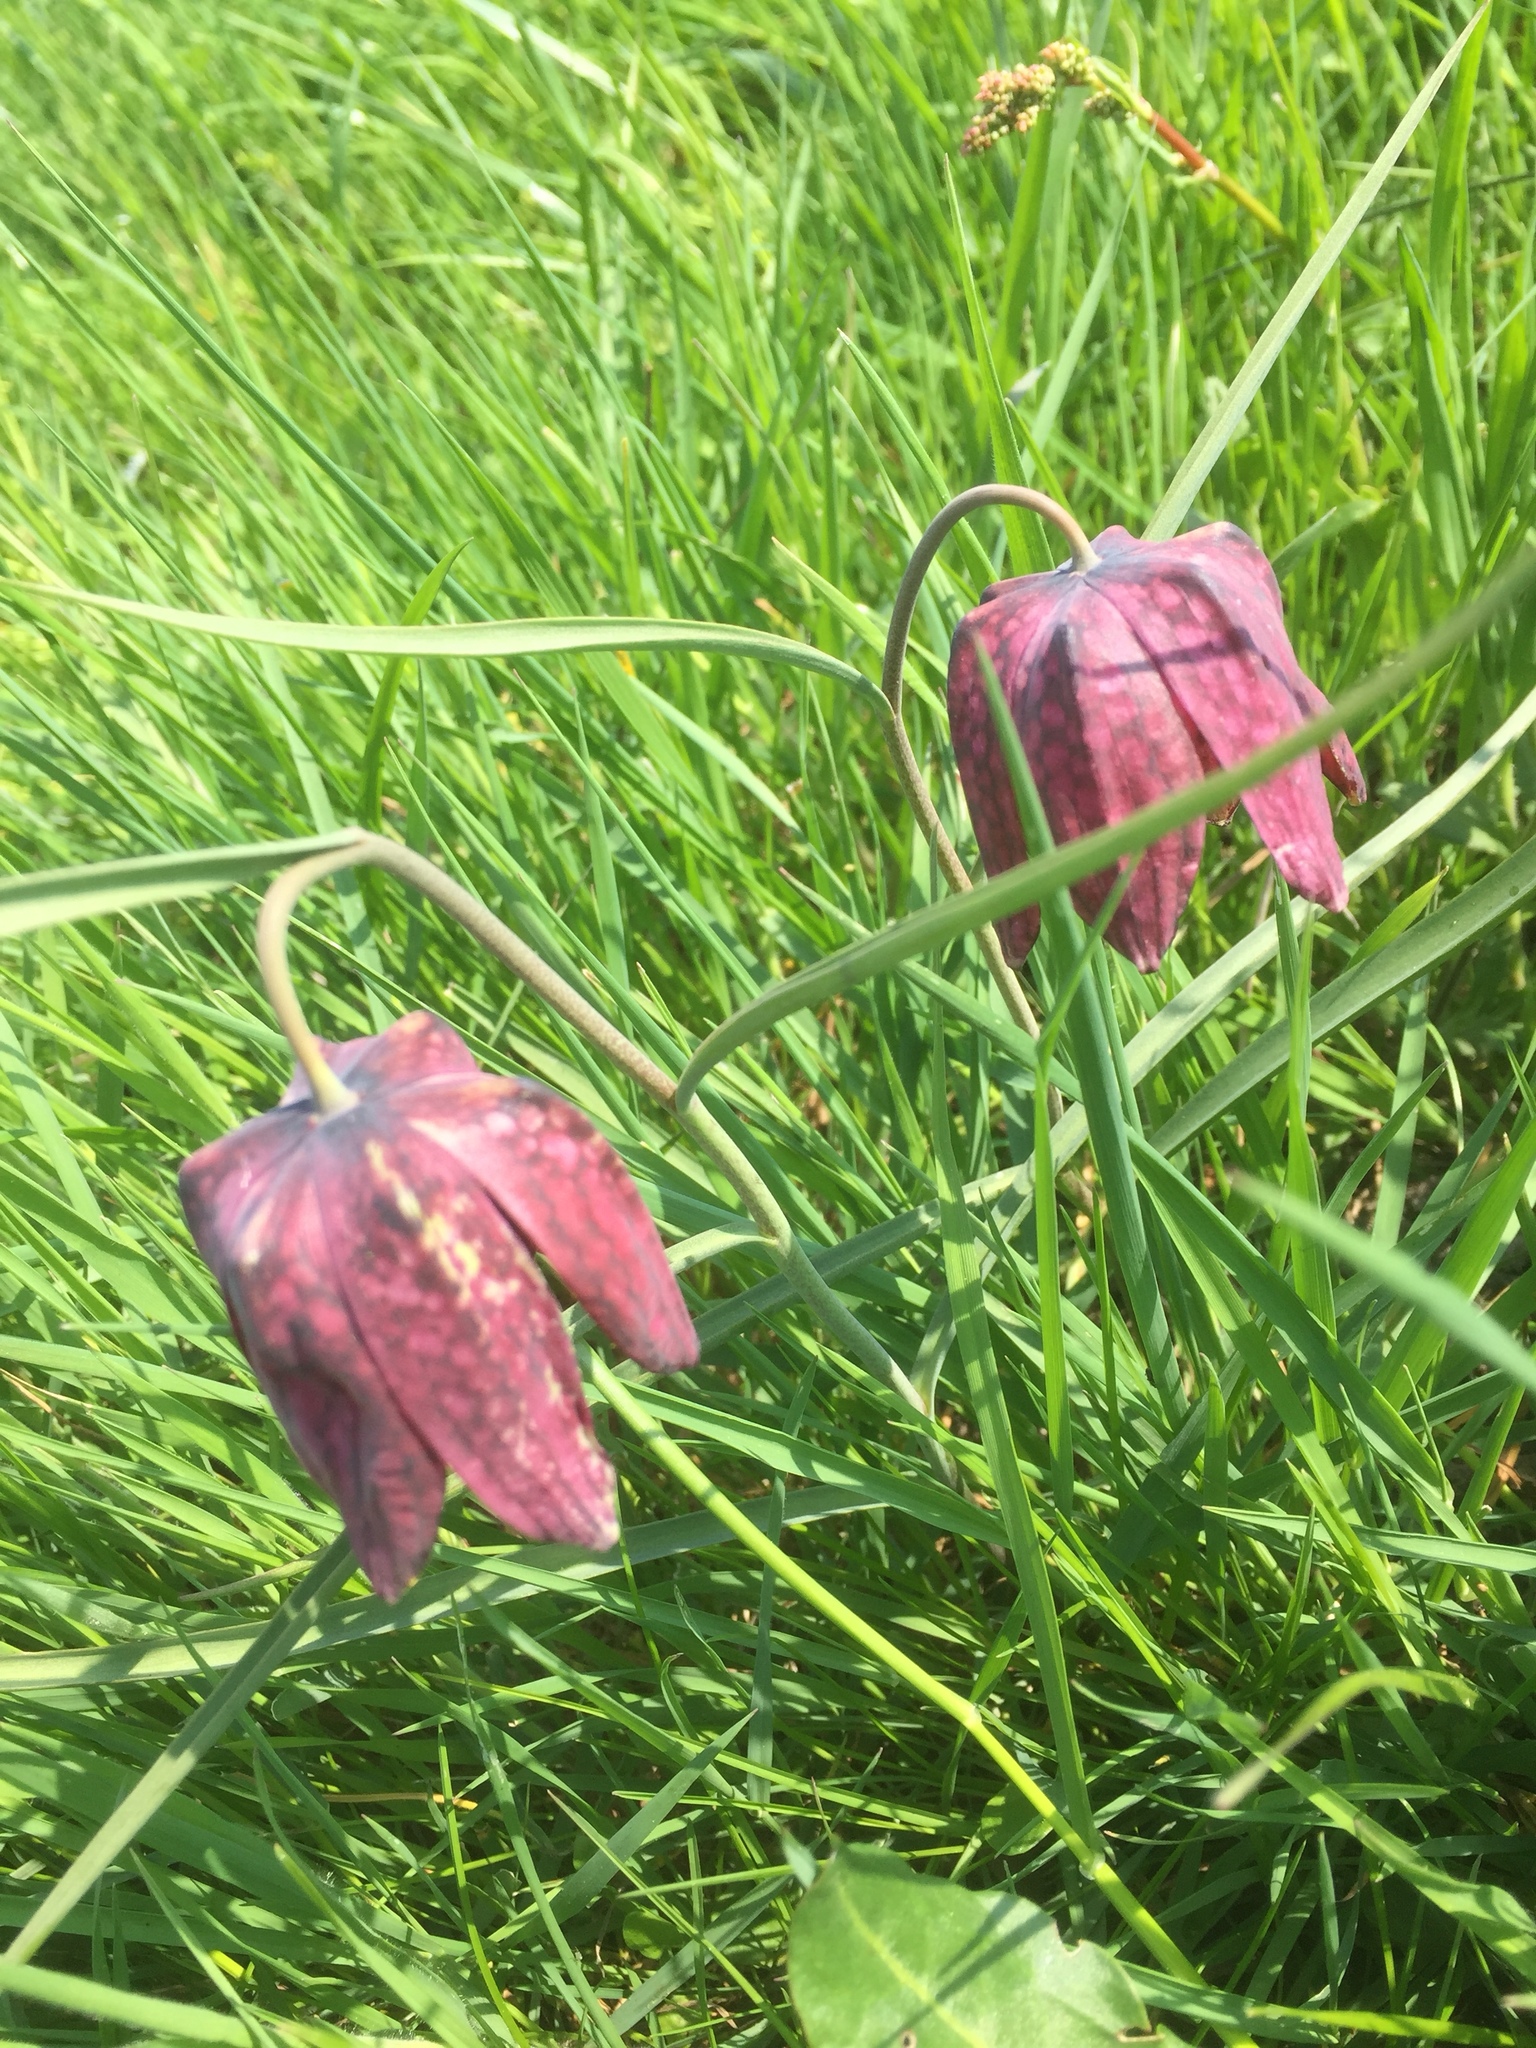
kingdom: Plantae
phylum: Tracheophyta
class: Liliopsida
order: Liliales
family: Liliaceae
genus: Fritillaria
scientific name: Fritillaria meleagris
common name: Fritillary
